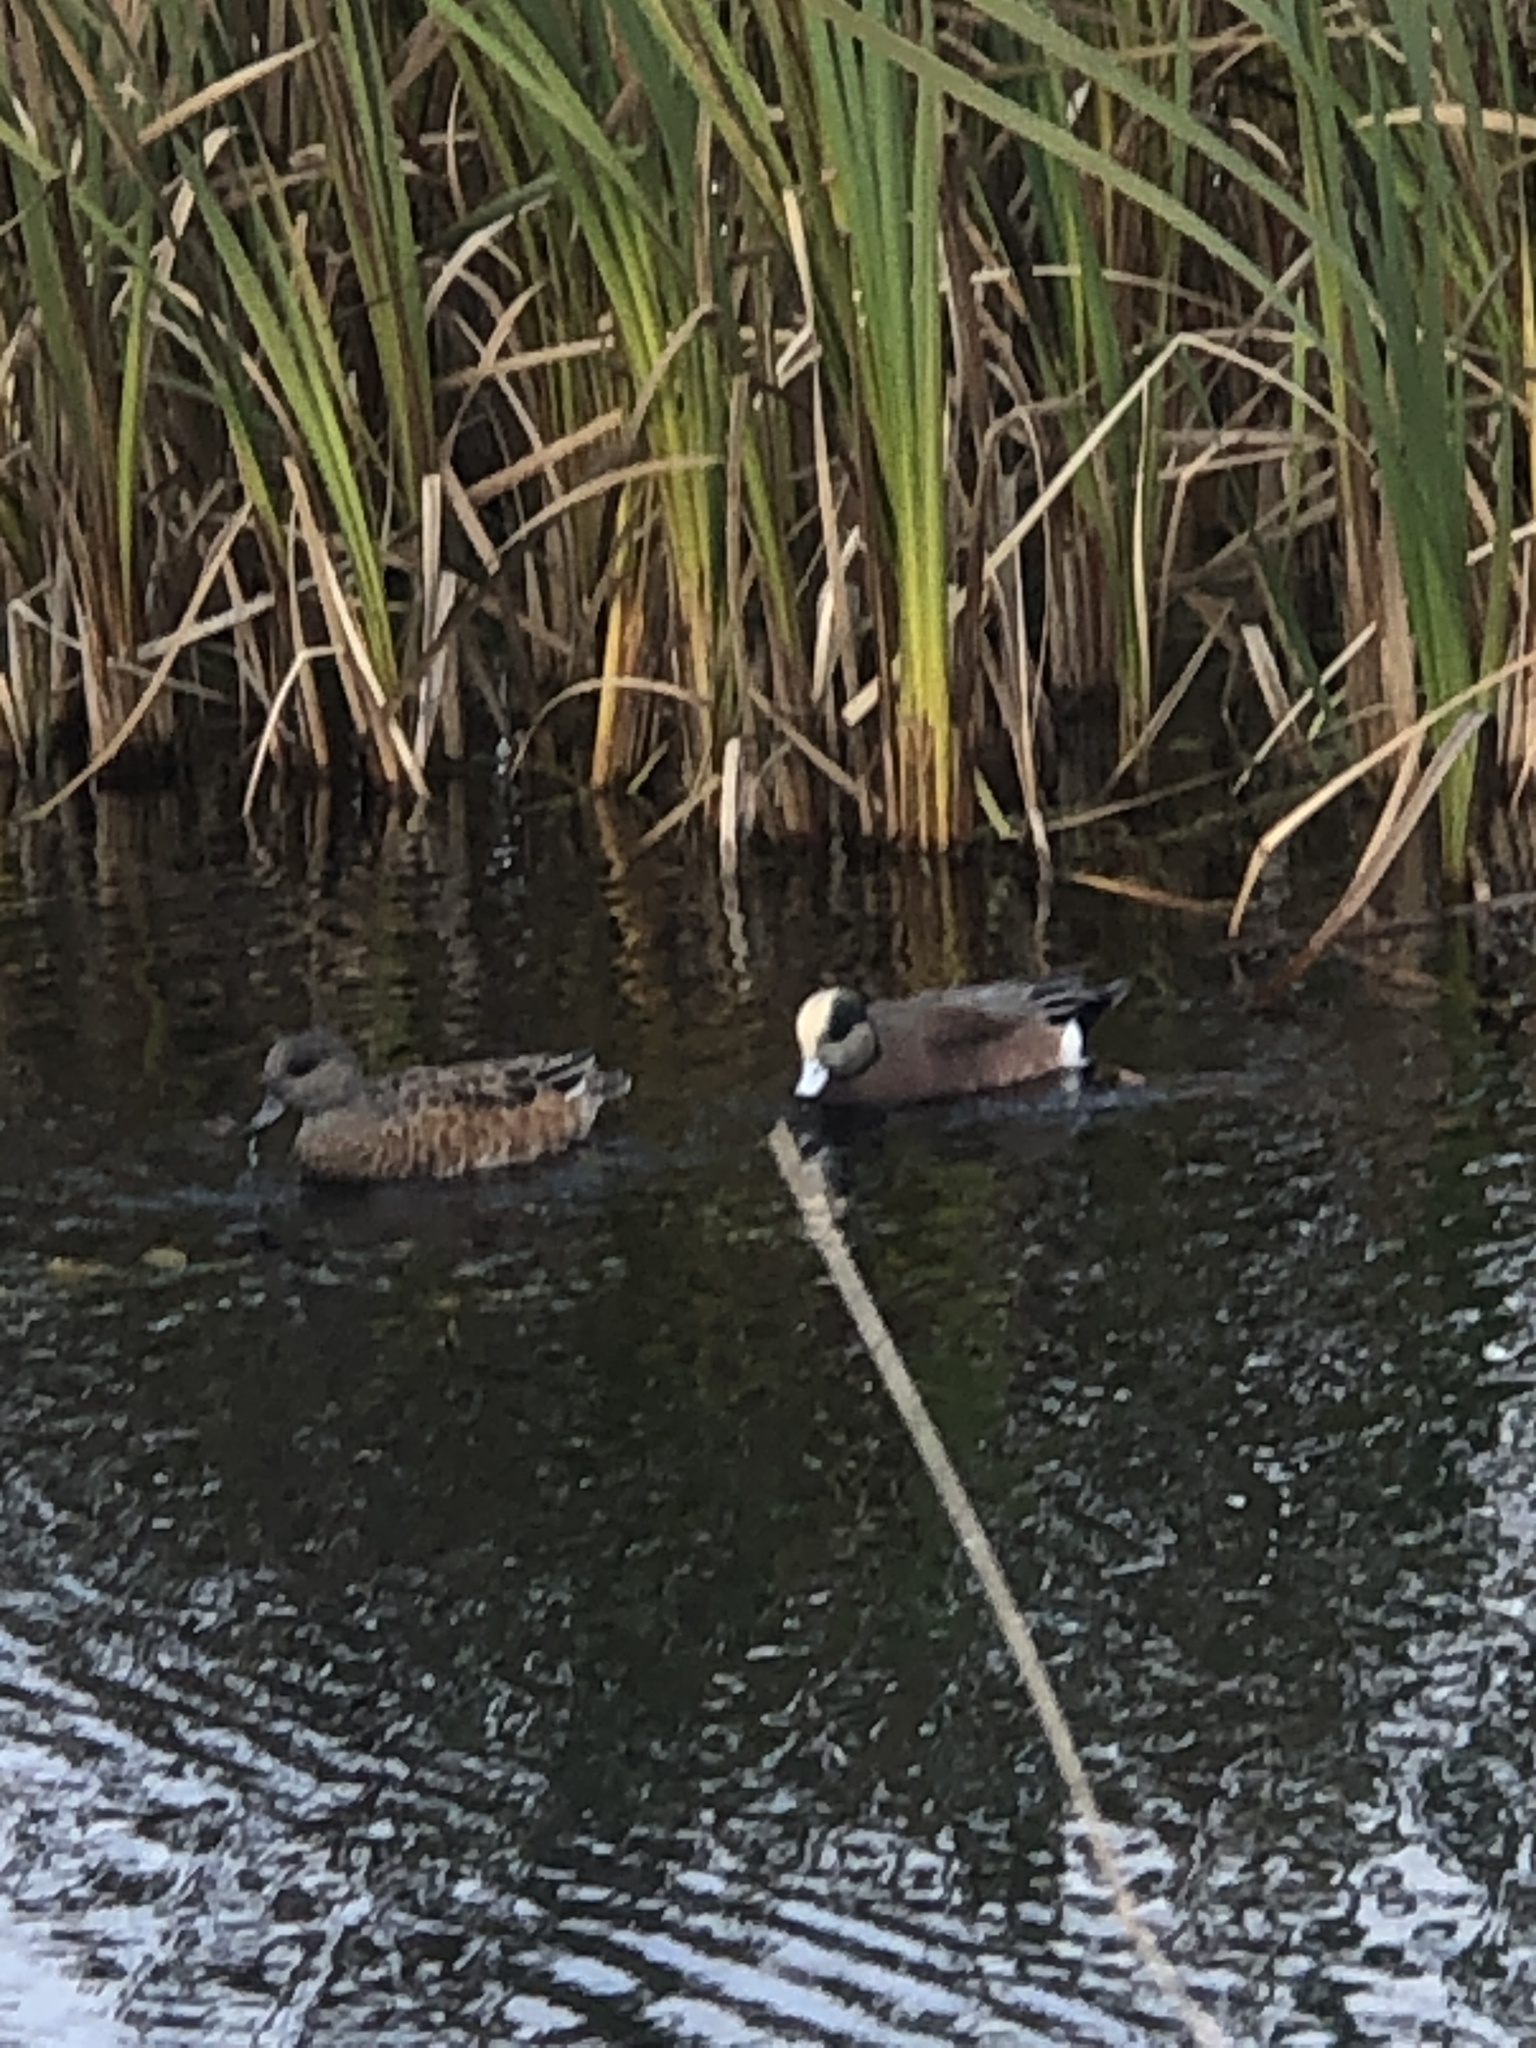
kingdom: Animalia
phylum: Chordata
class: Aves
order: Anseriformes
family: Anatidae
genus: Mareca
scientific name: Mareca americana
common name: American wigeon
